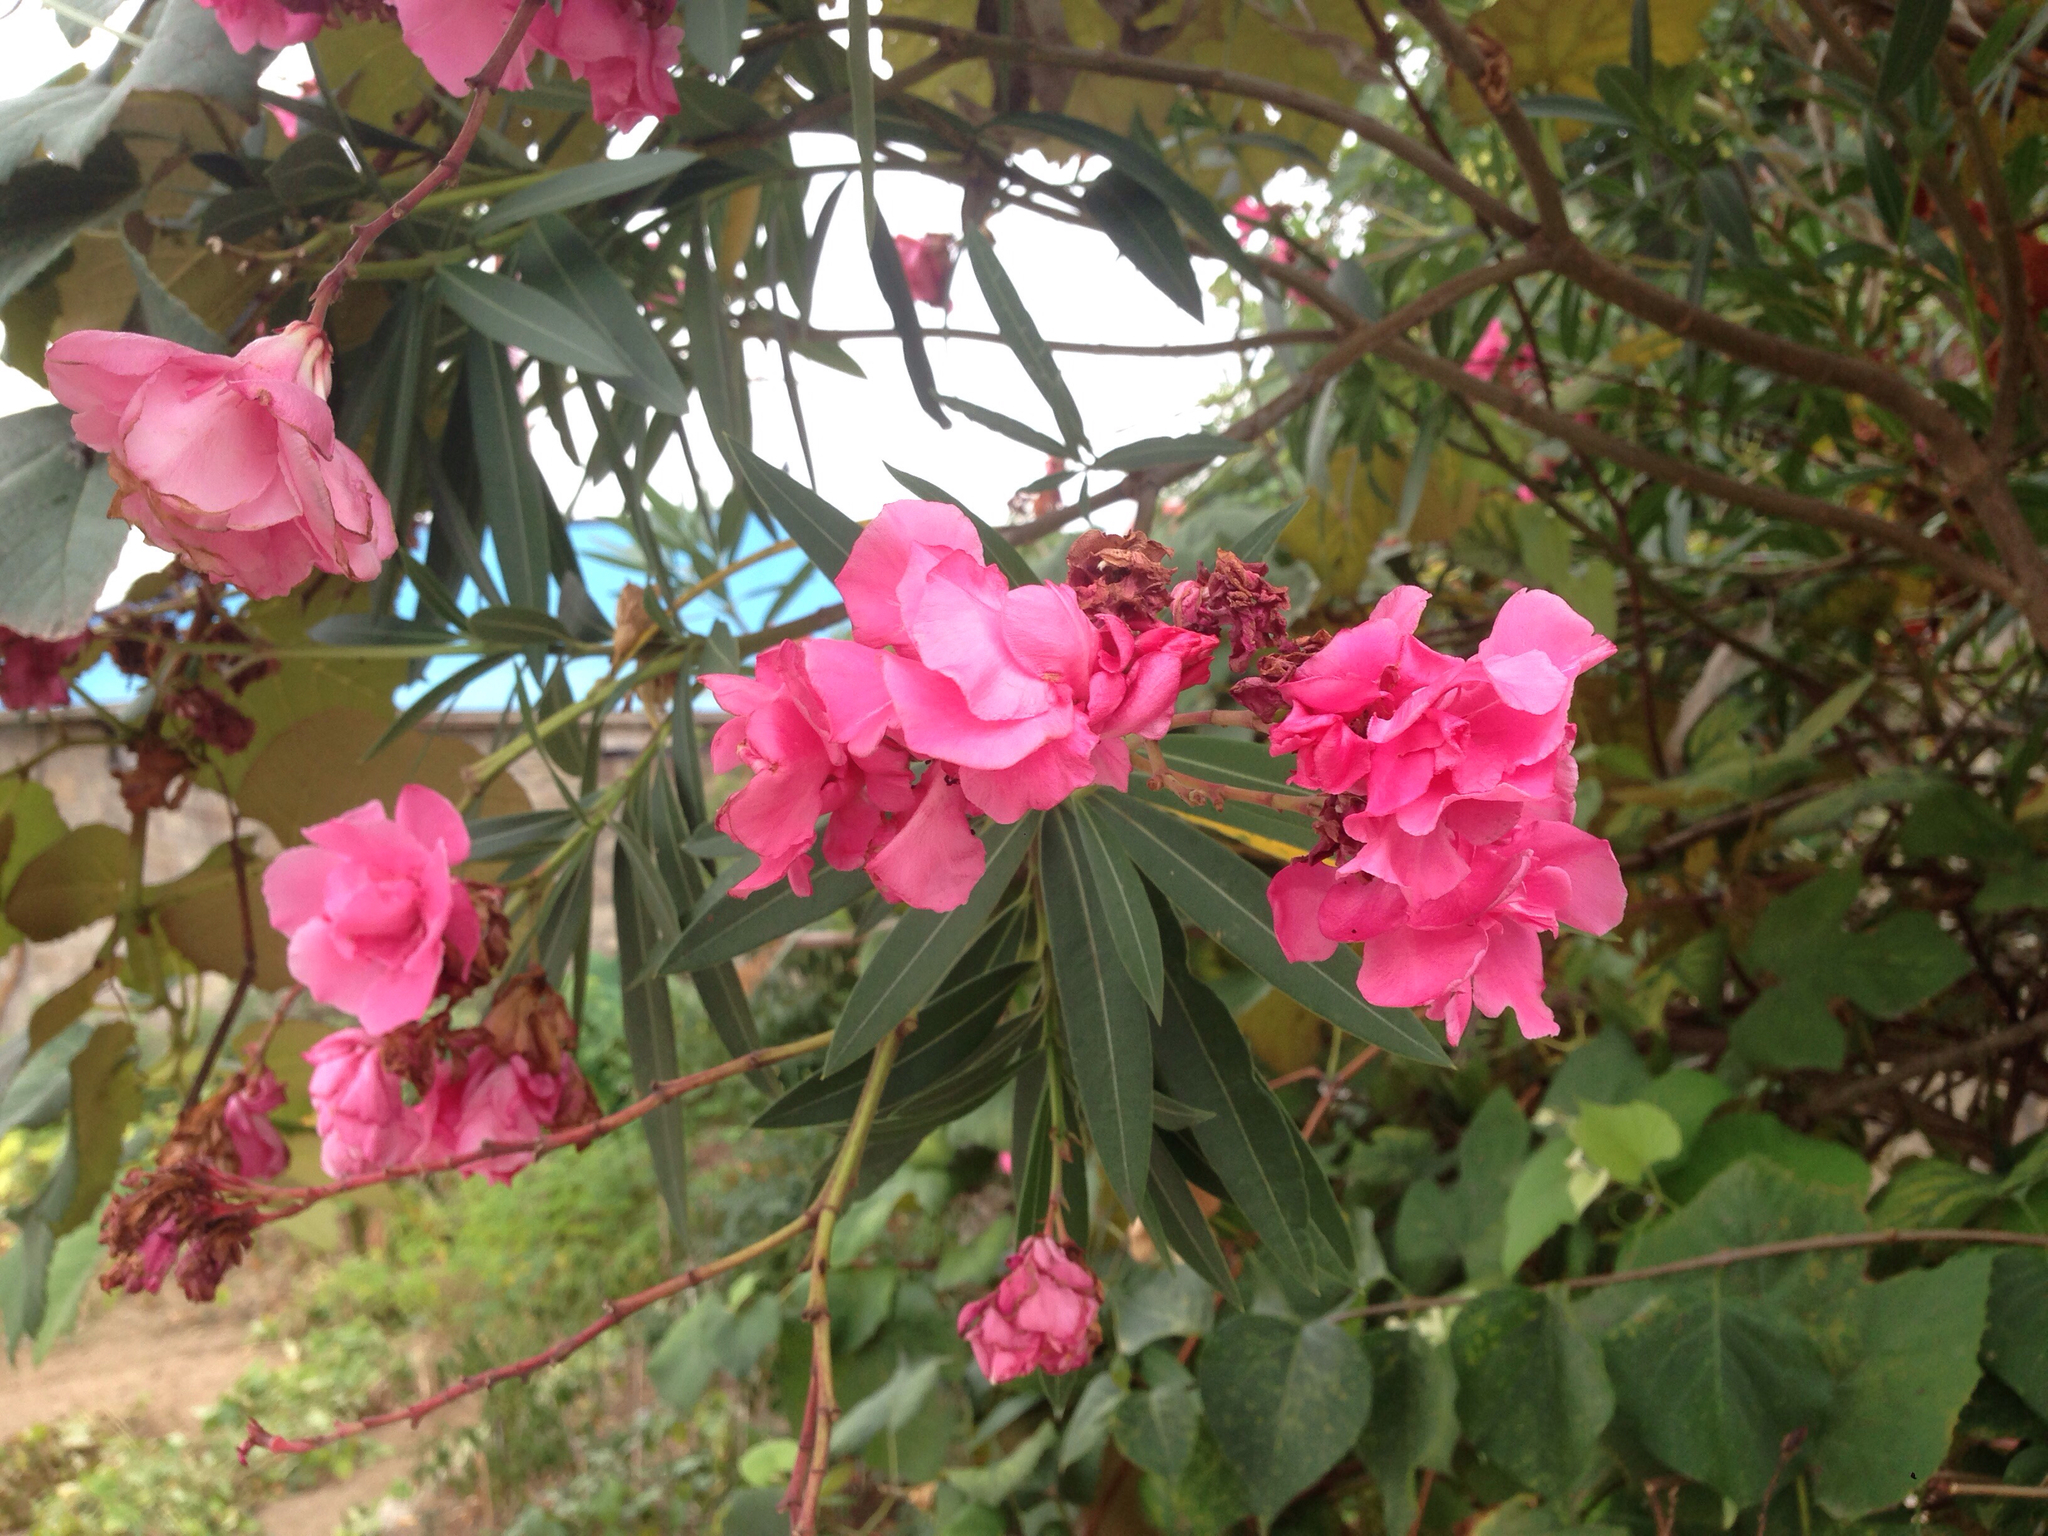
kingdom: Plantae
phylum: Tracheophyta
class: Magnoliopsida
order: Gentianales
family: Apocynaceae
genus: Nerium
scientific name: Nerium oleander
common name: Oleander
